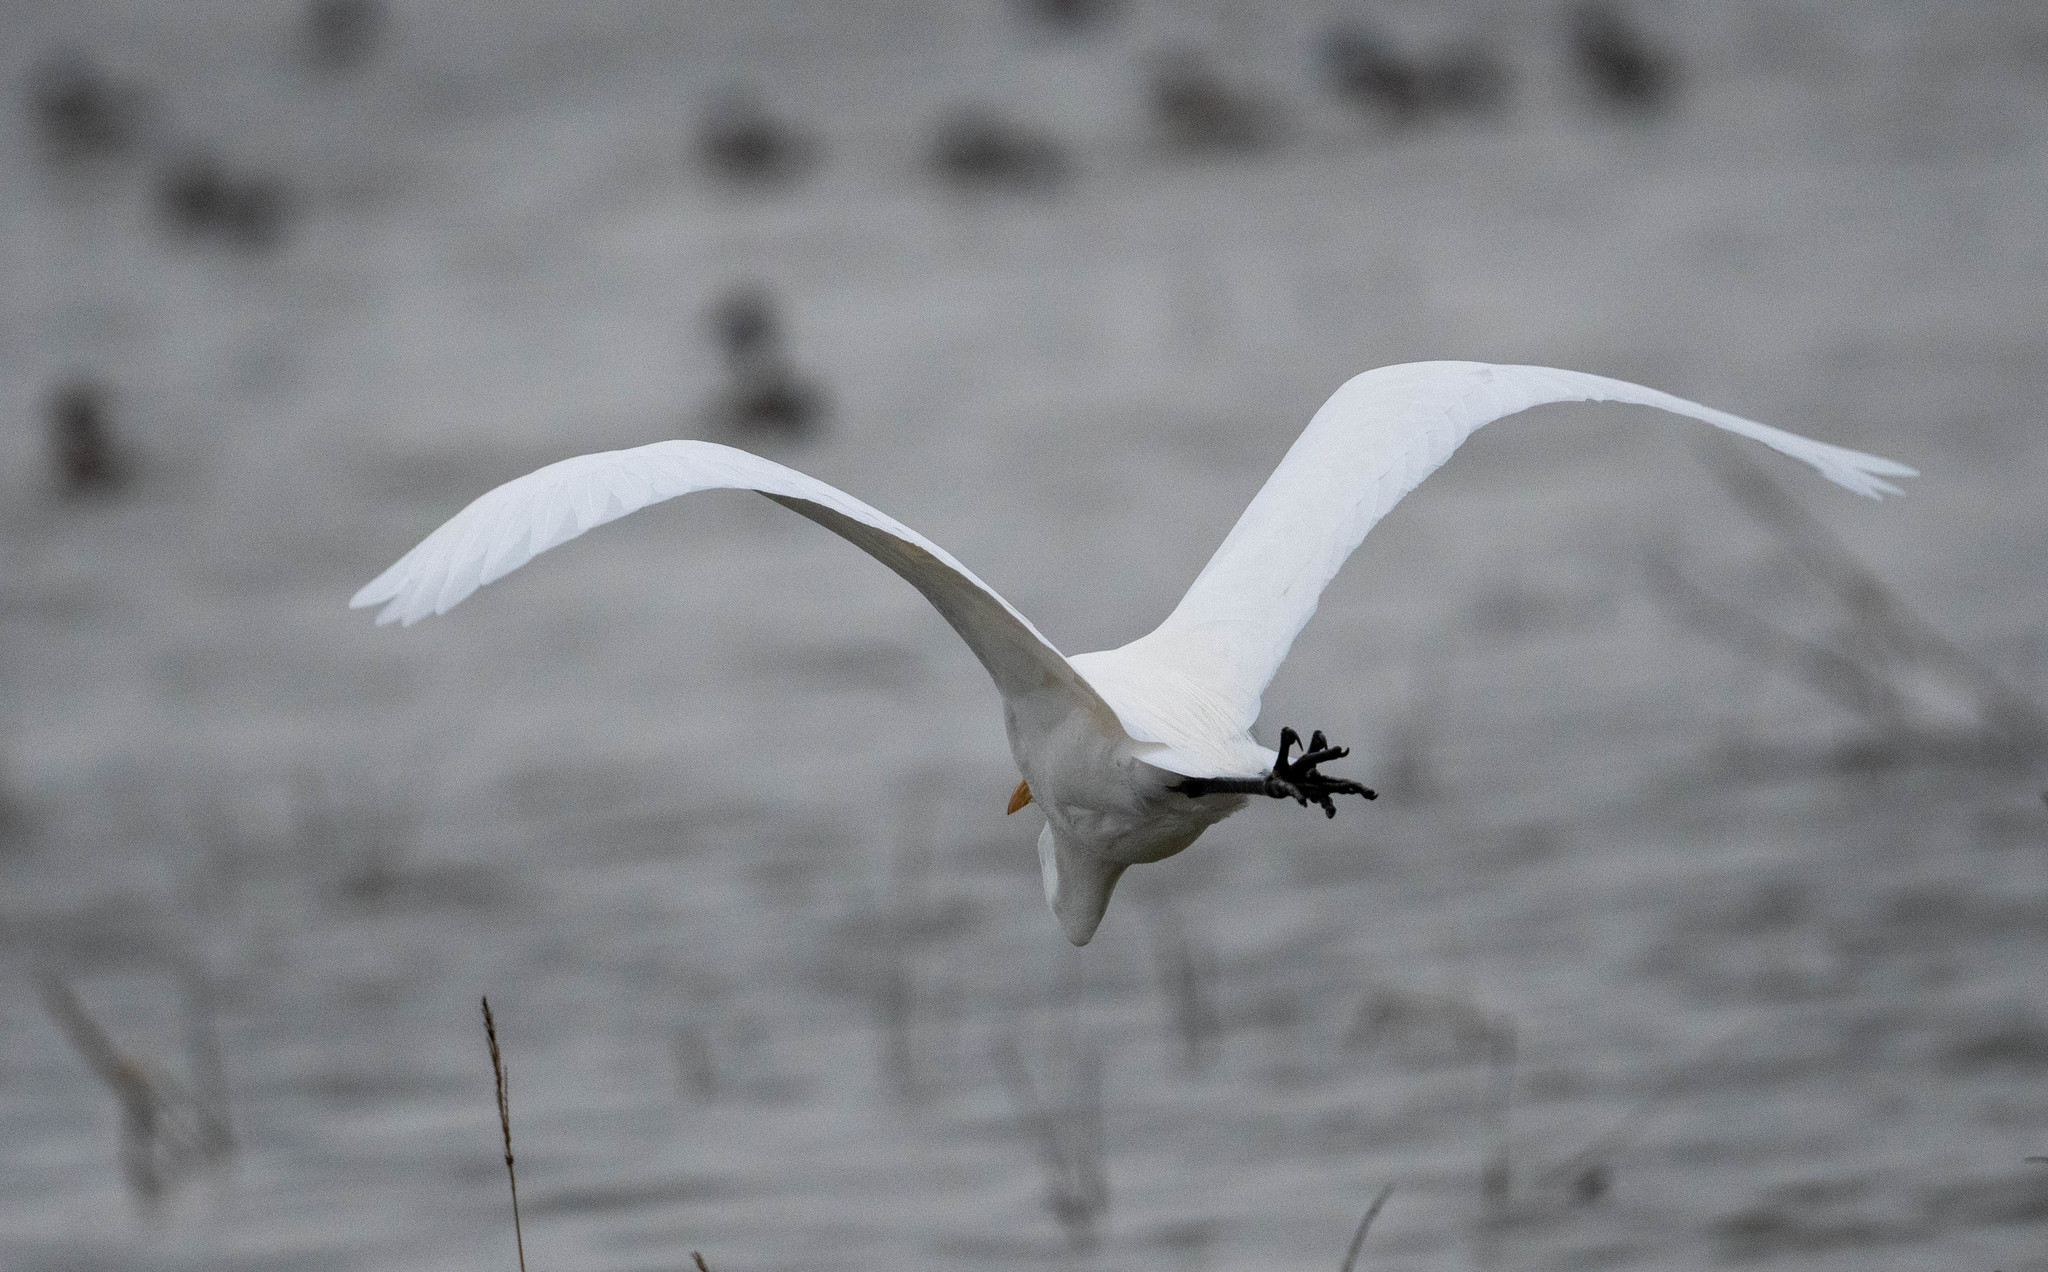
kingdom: Animalia
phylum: Chordata
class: Aves
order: Pelecaniformes
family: Ardeidae
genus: Ardea
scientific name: Ardea alba
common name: Great egret
